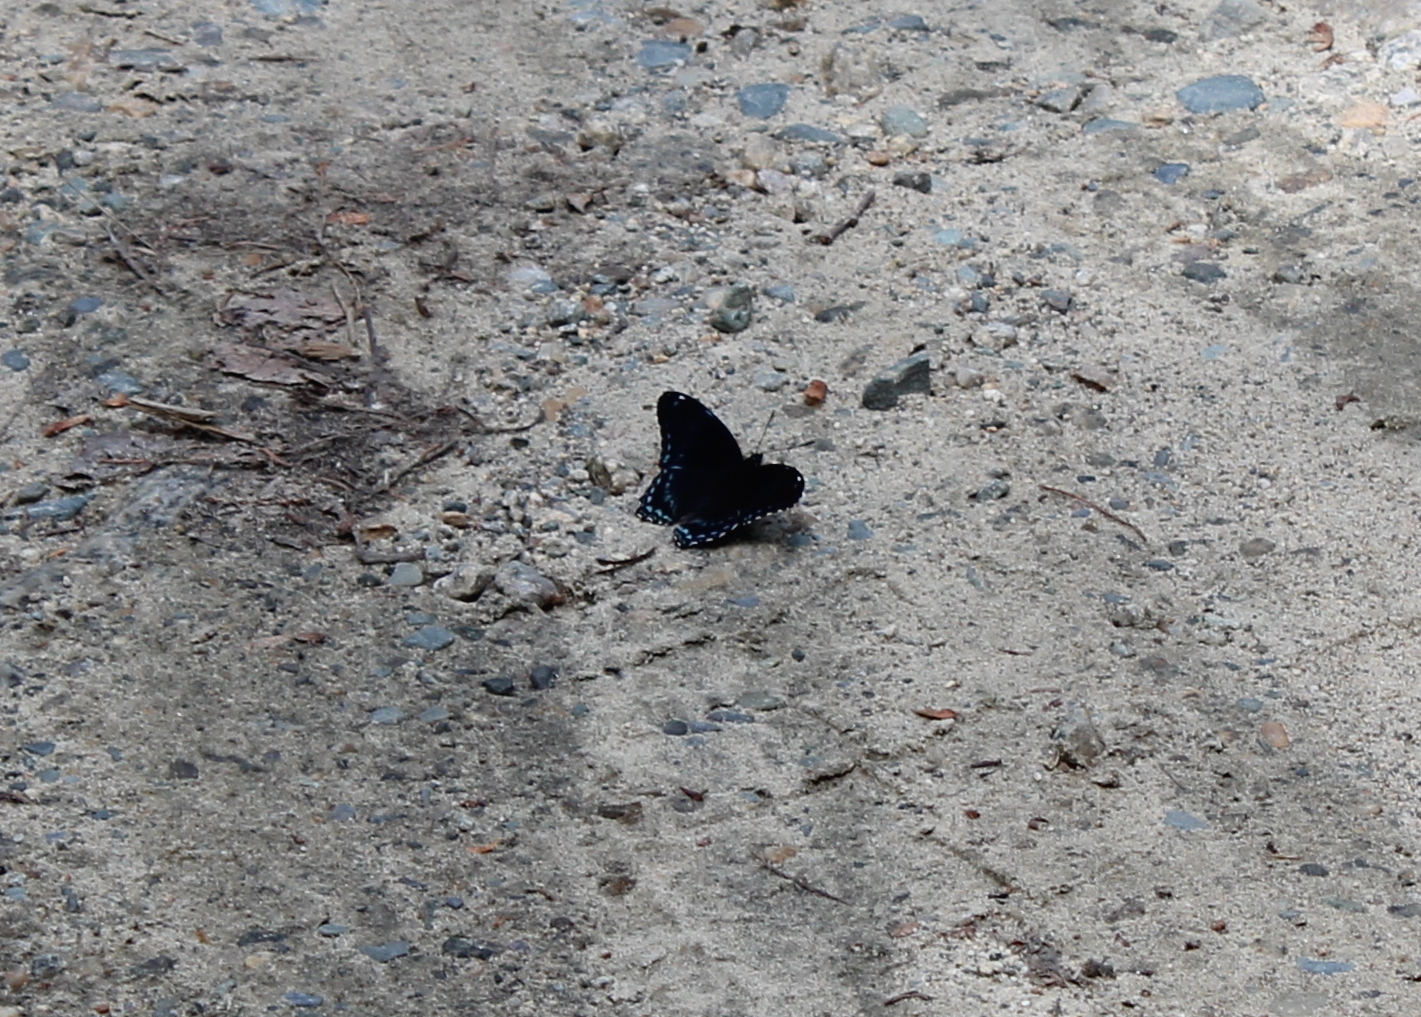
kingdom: Animalia
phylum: Arthropoda
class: Insecta
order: Lepidoptera
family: Nymphalidae
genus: Limenitis
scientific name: Limenitis astyanax
